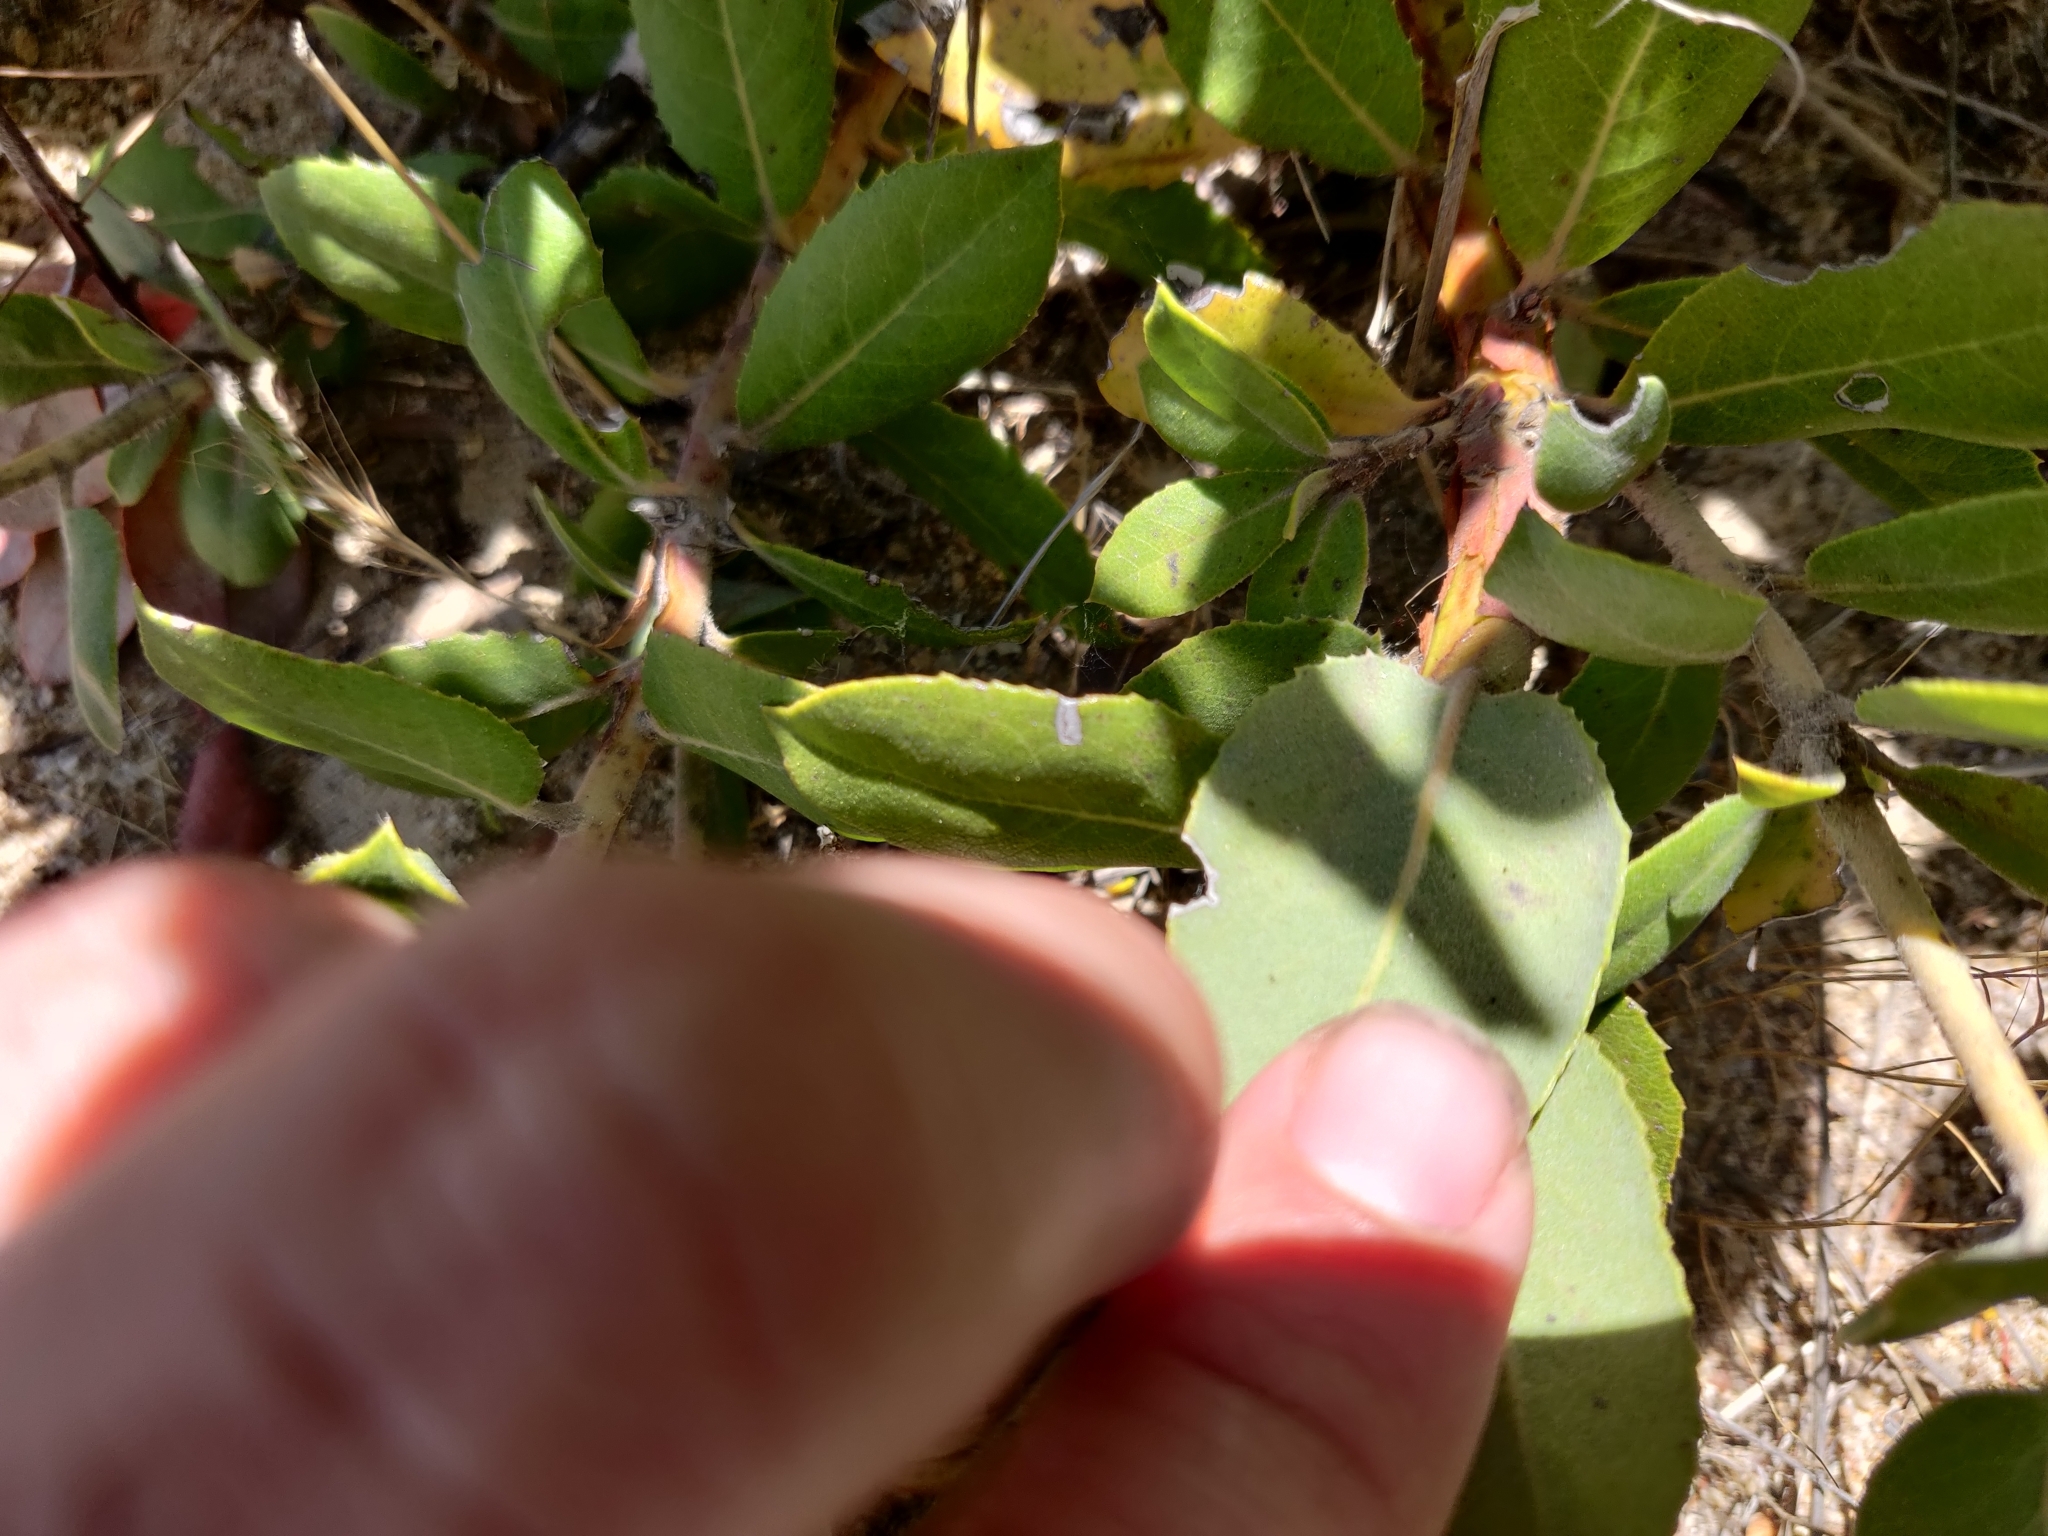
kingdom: Plantae
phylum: Tracheophyta
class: Magnoliopsida
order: Ericales
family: Ericaceae
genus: Arctostaphylos
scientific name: Arctostaphylos crustacea
